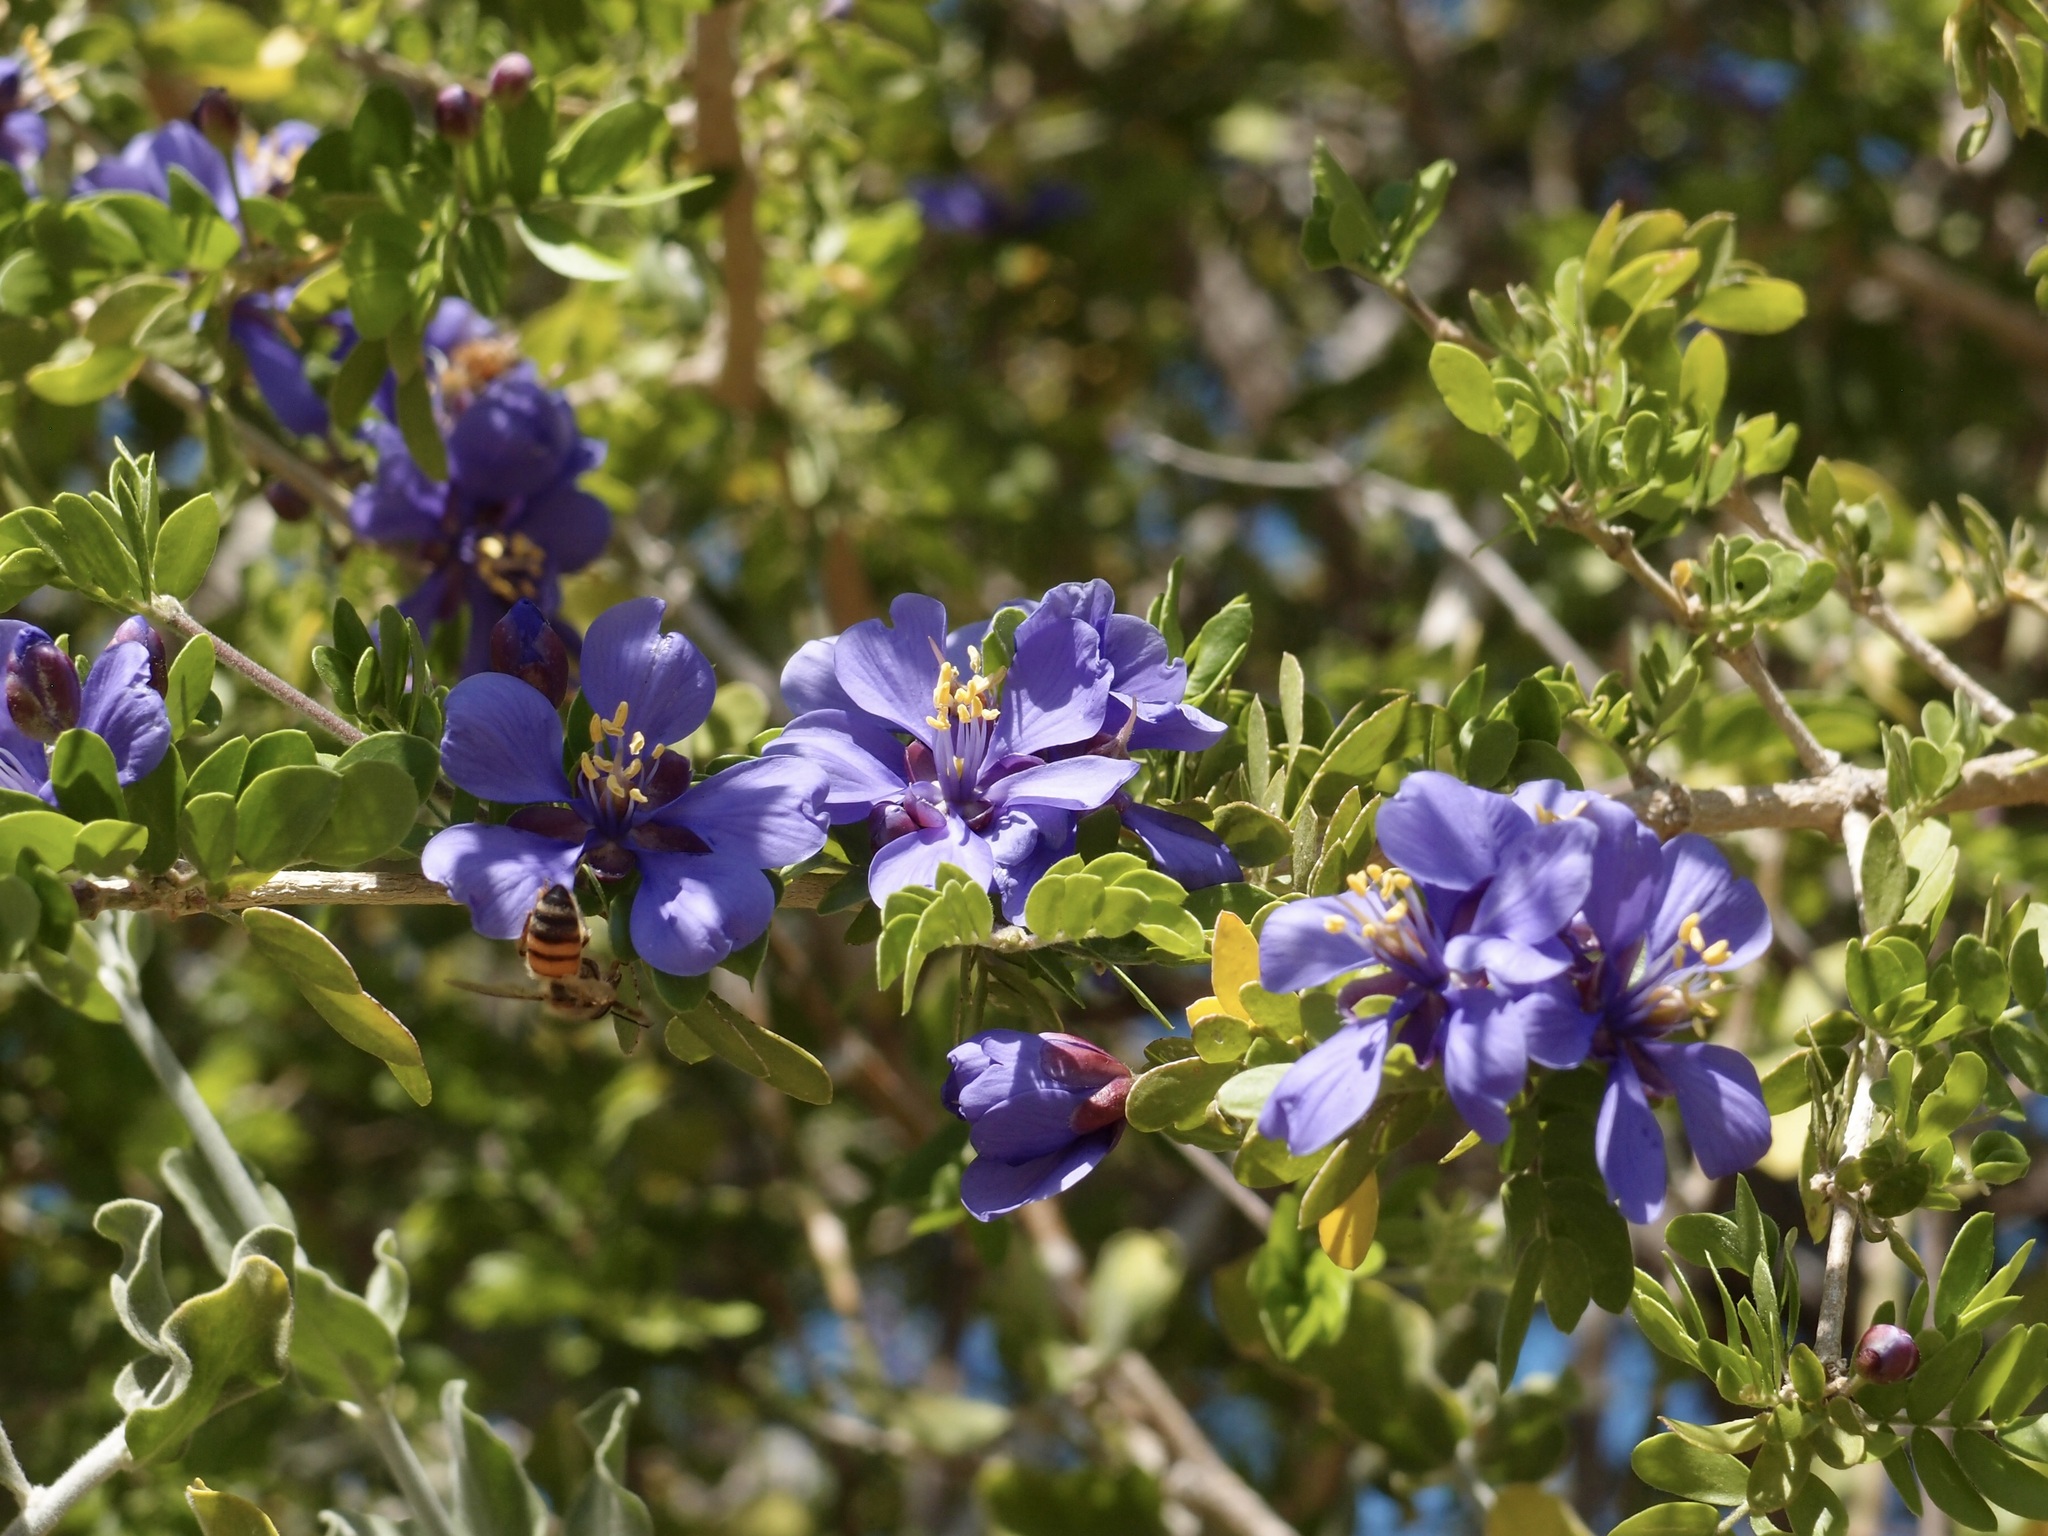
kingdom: Plantae
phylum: Tracheophyta
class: Magnoliopsida
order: Zygophyllales
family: Zygophyllaceae
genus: Guaiacum
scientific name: Guaiacum coulteri
